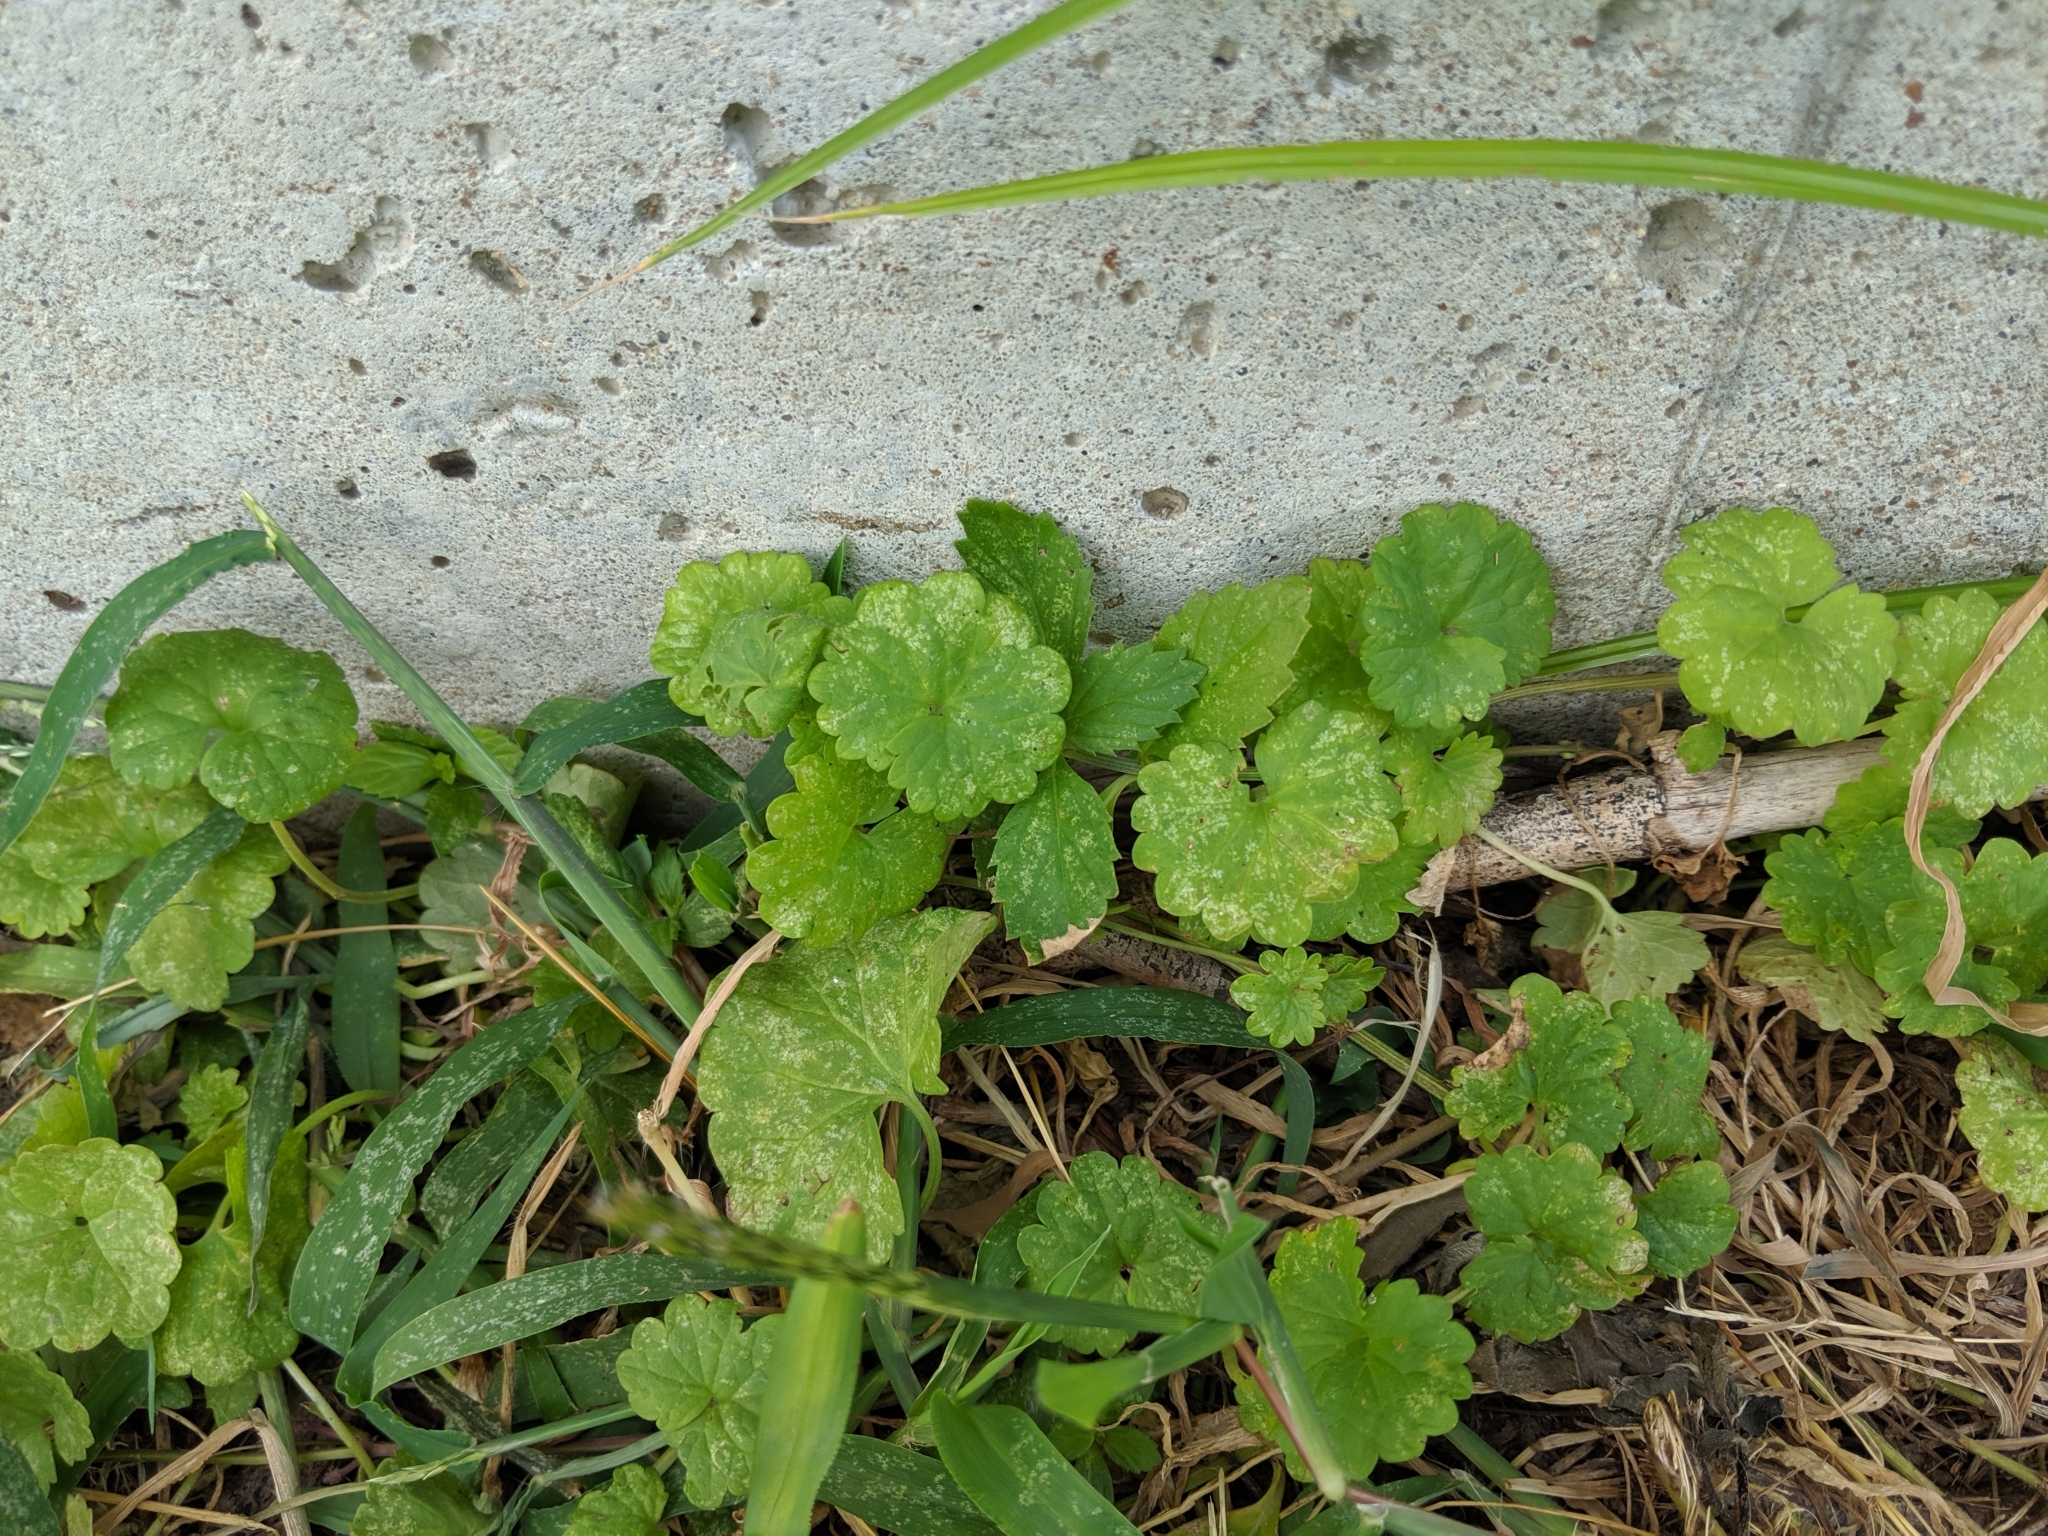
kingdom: Plantae
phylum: Tracheophyta
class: Magnoliopsida
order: Lamiales
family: Lamiaceae
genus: Glechoma
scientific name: Glechoma hederacea
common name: Ground ivy
